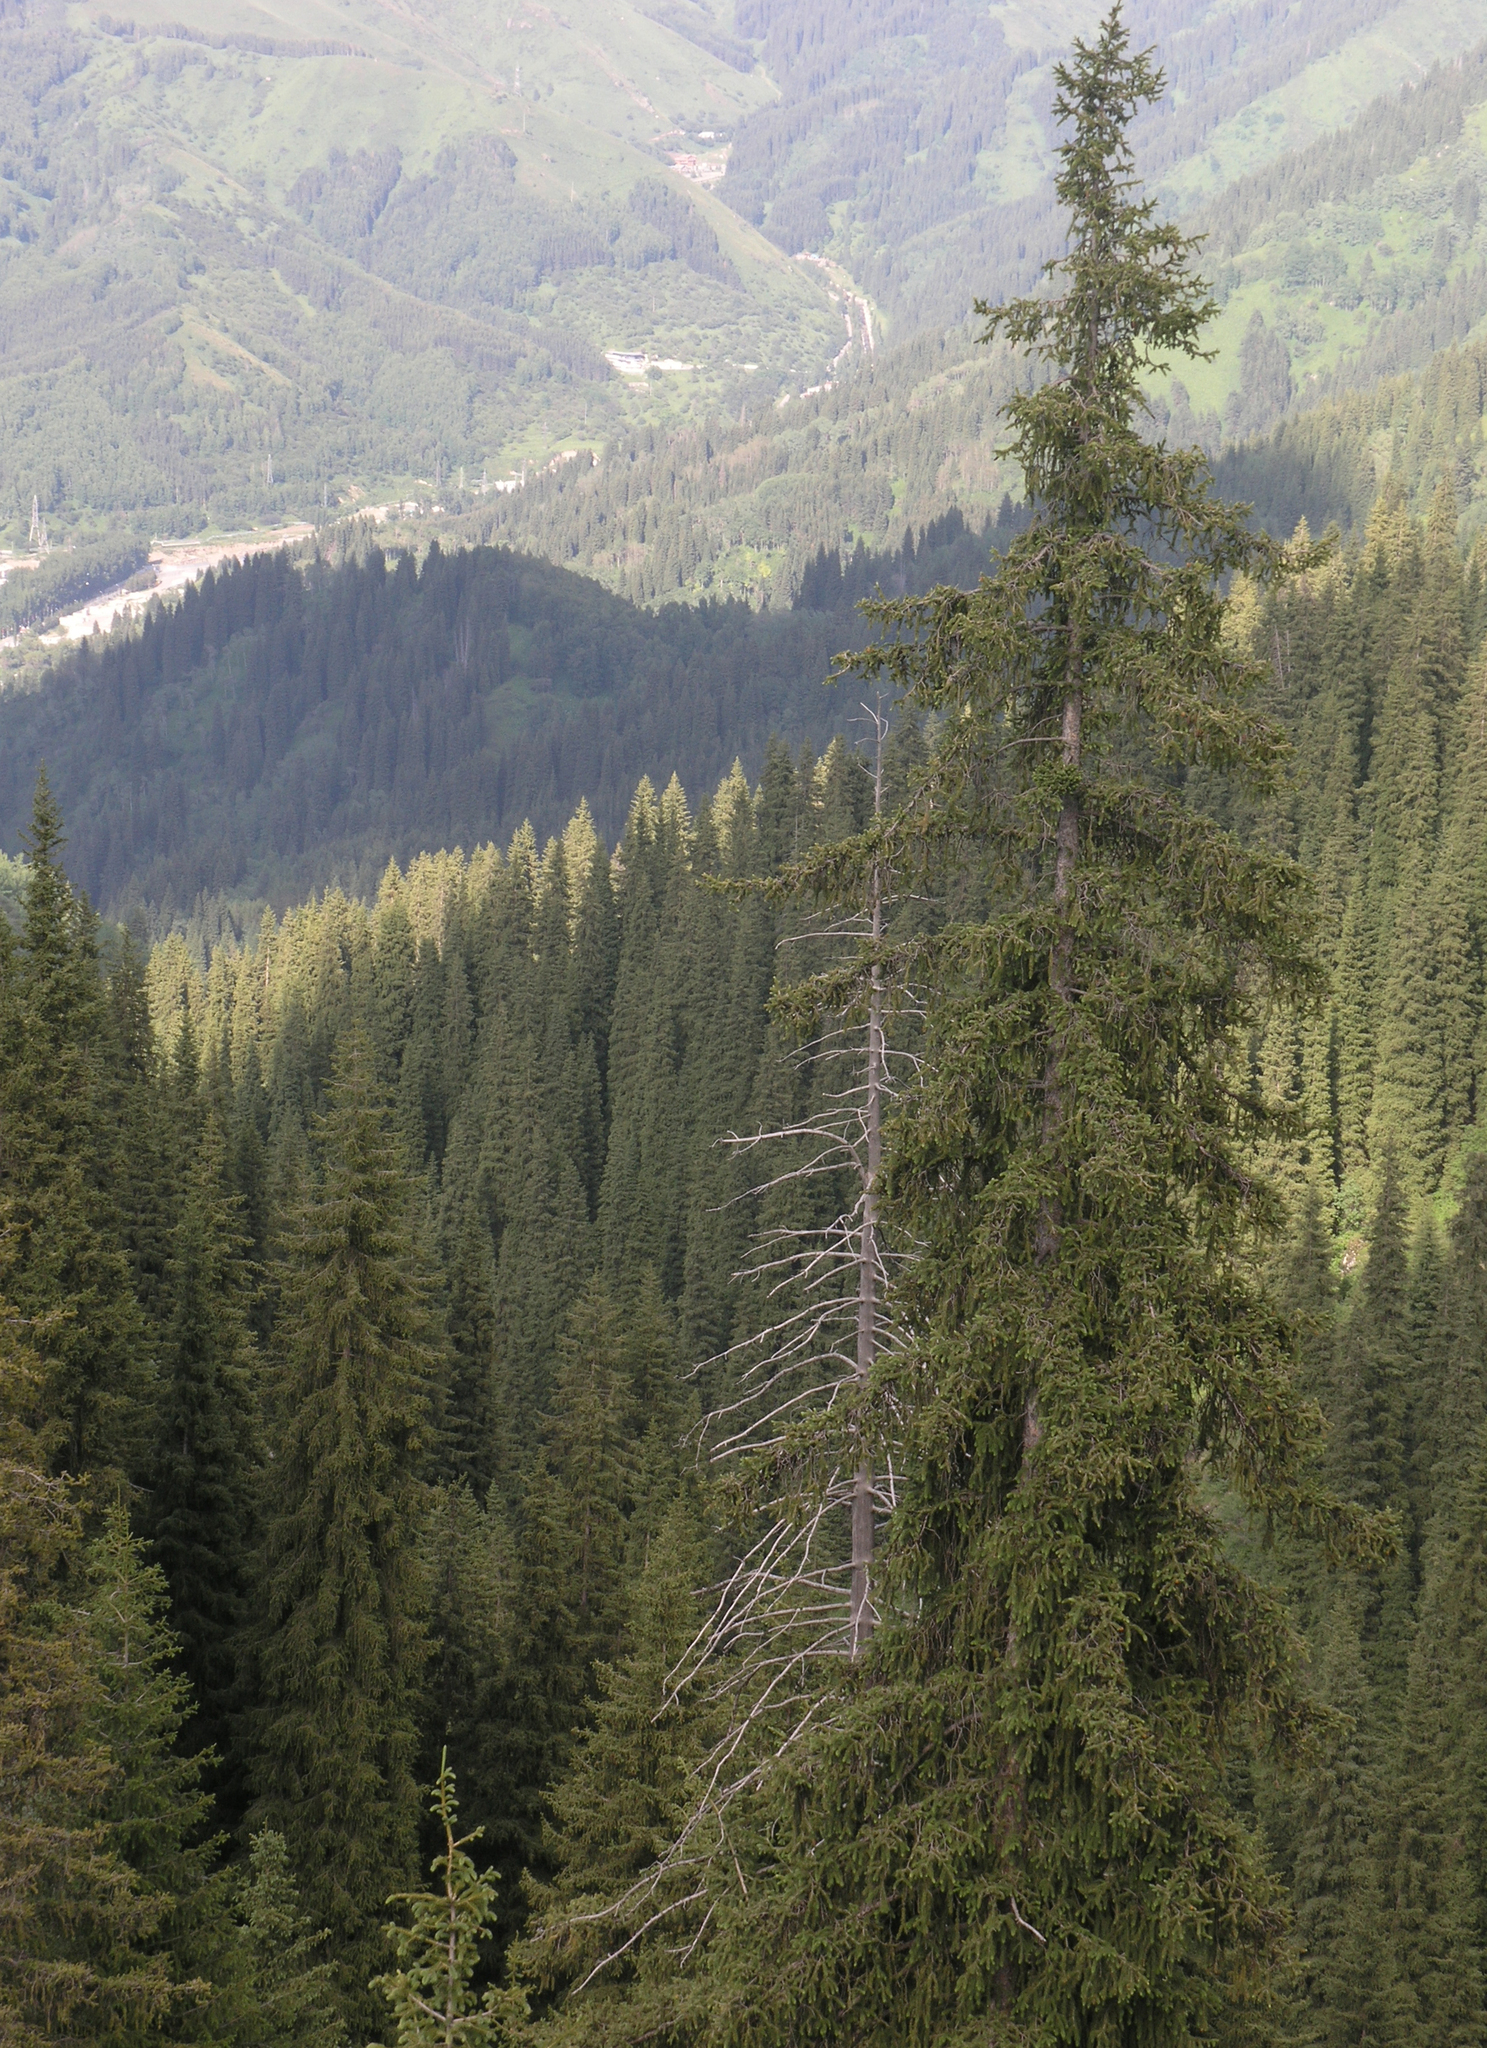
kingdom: Plantae
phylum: Tracheophyta
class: Pinopsida
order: Pinales
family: Pinaceae
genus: Picea
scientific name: Picea schrenkiana
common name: Asian spruce
